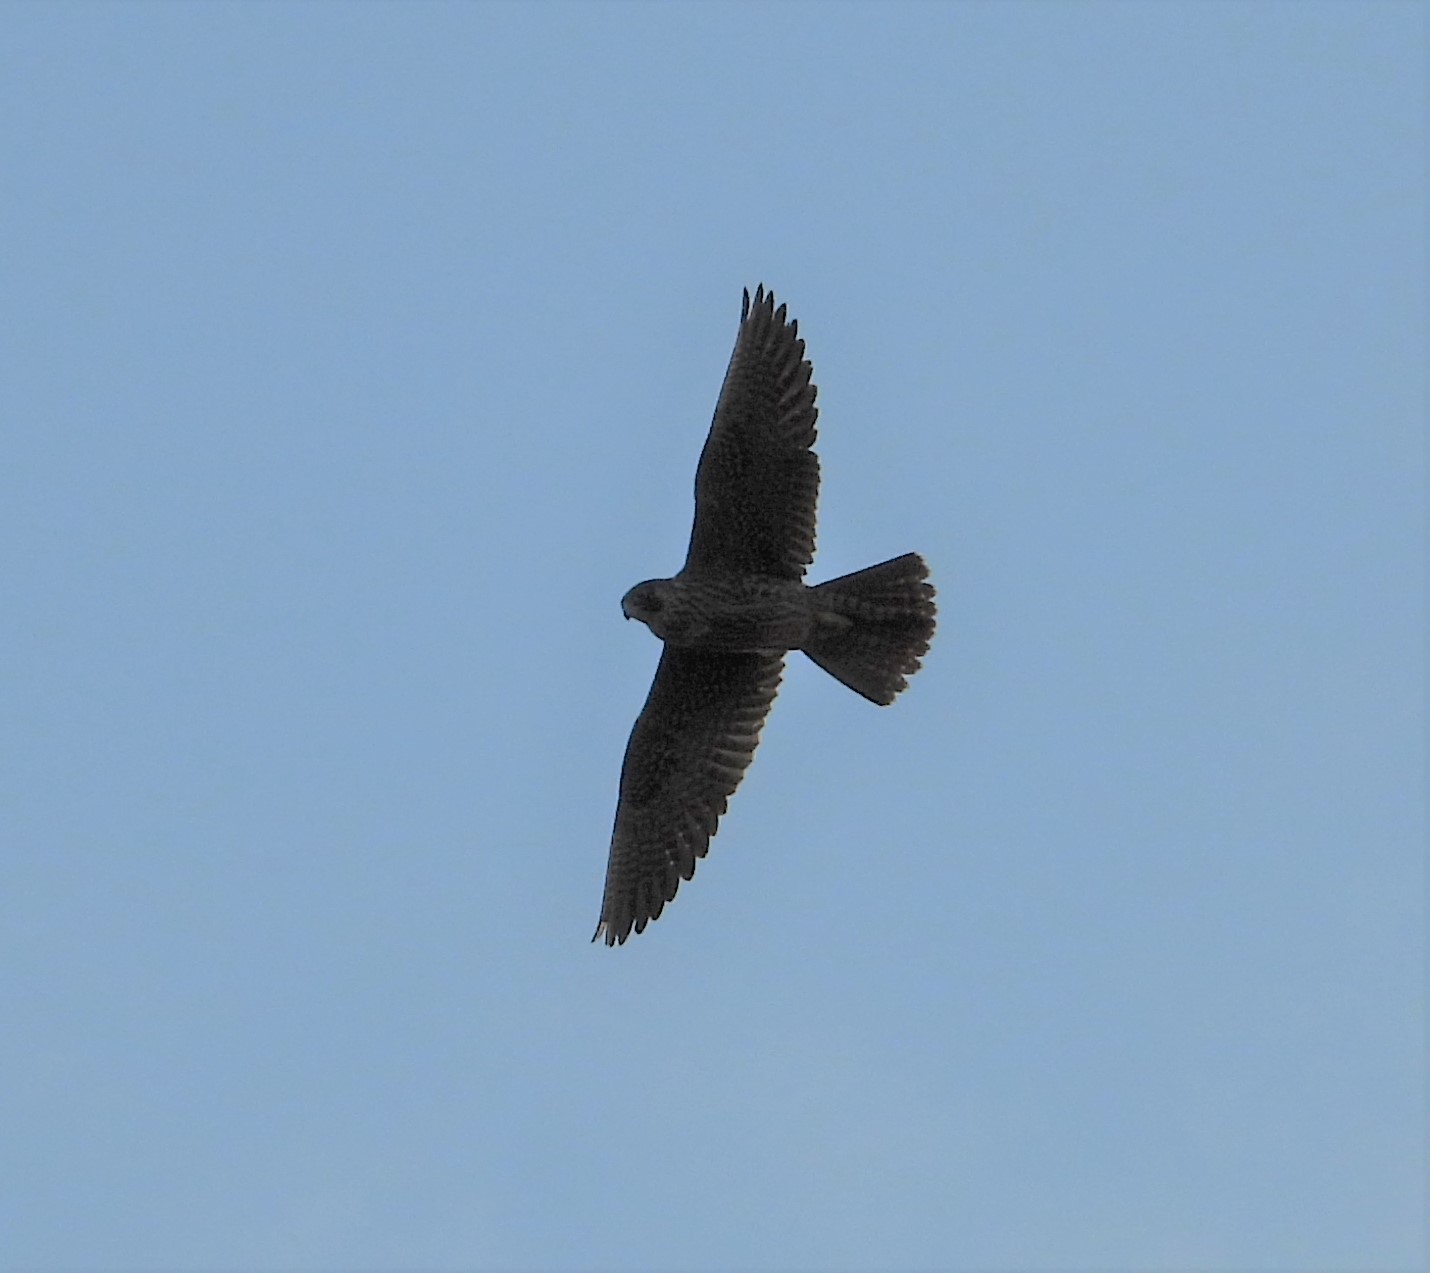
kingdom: Animalia
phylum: Chordata
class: Aves
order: Falconiformes
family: Falconidae
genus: Falco
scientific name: Falco peregrinus
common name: Peregrine falcon
